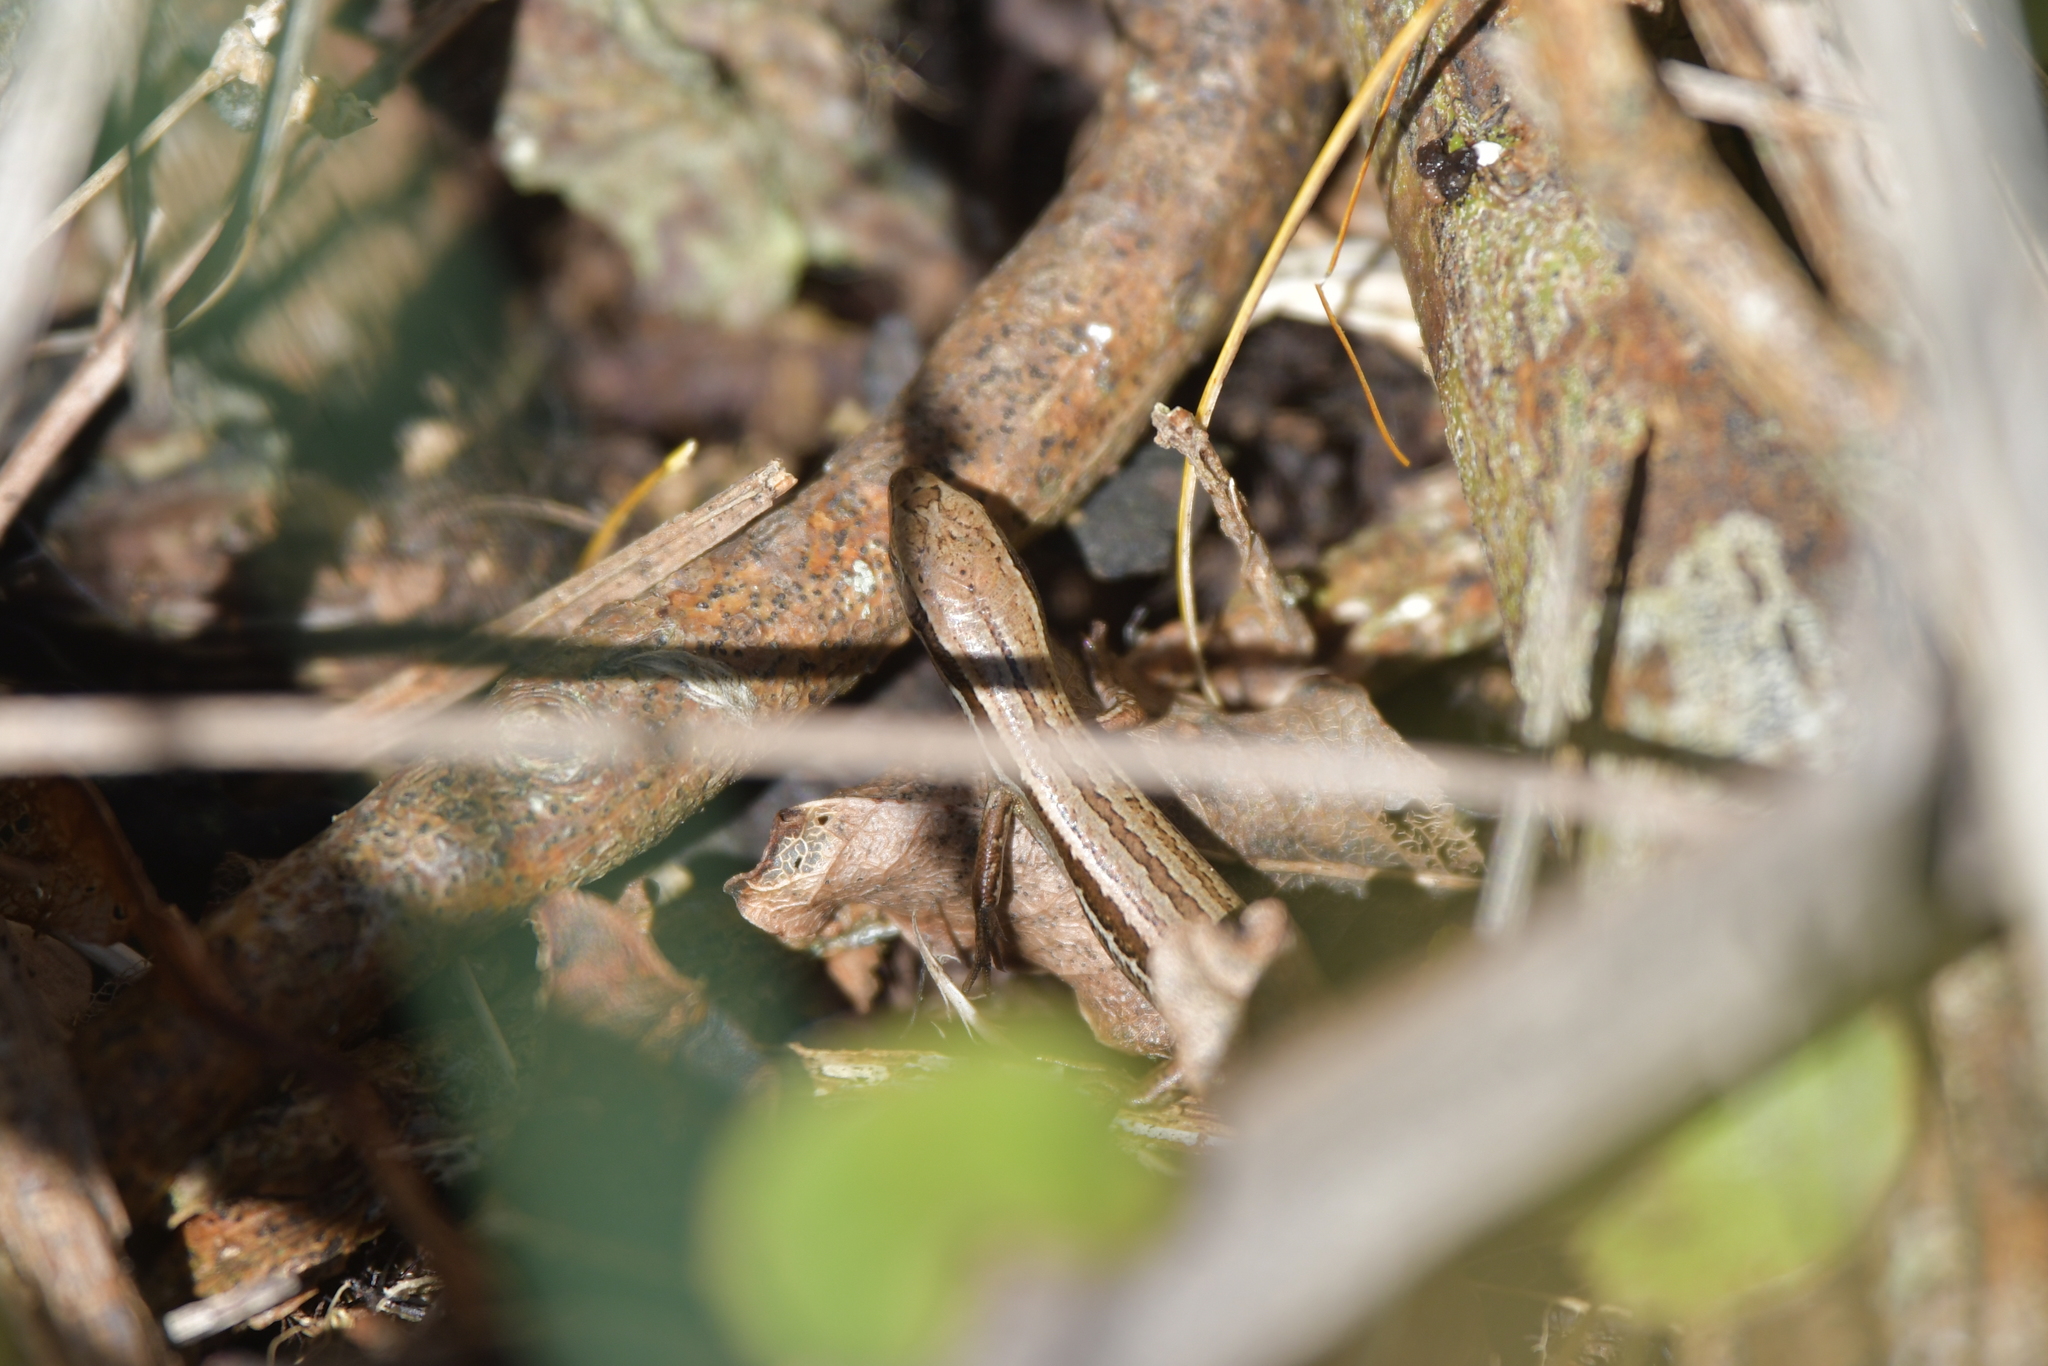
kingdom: Animalia
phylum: Chordata
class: Squamata
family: Scincidae
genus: Oligosoma
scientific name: Oligosoma polychroma
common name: Common new zealand skink
